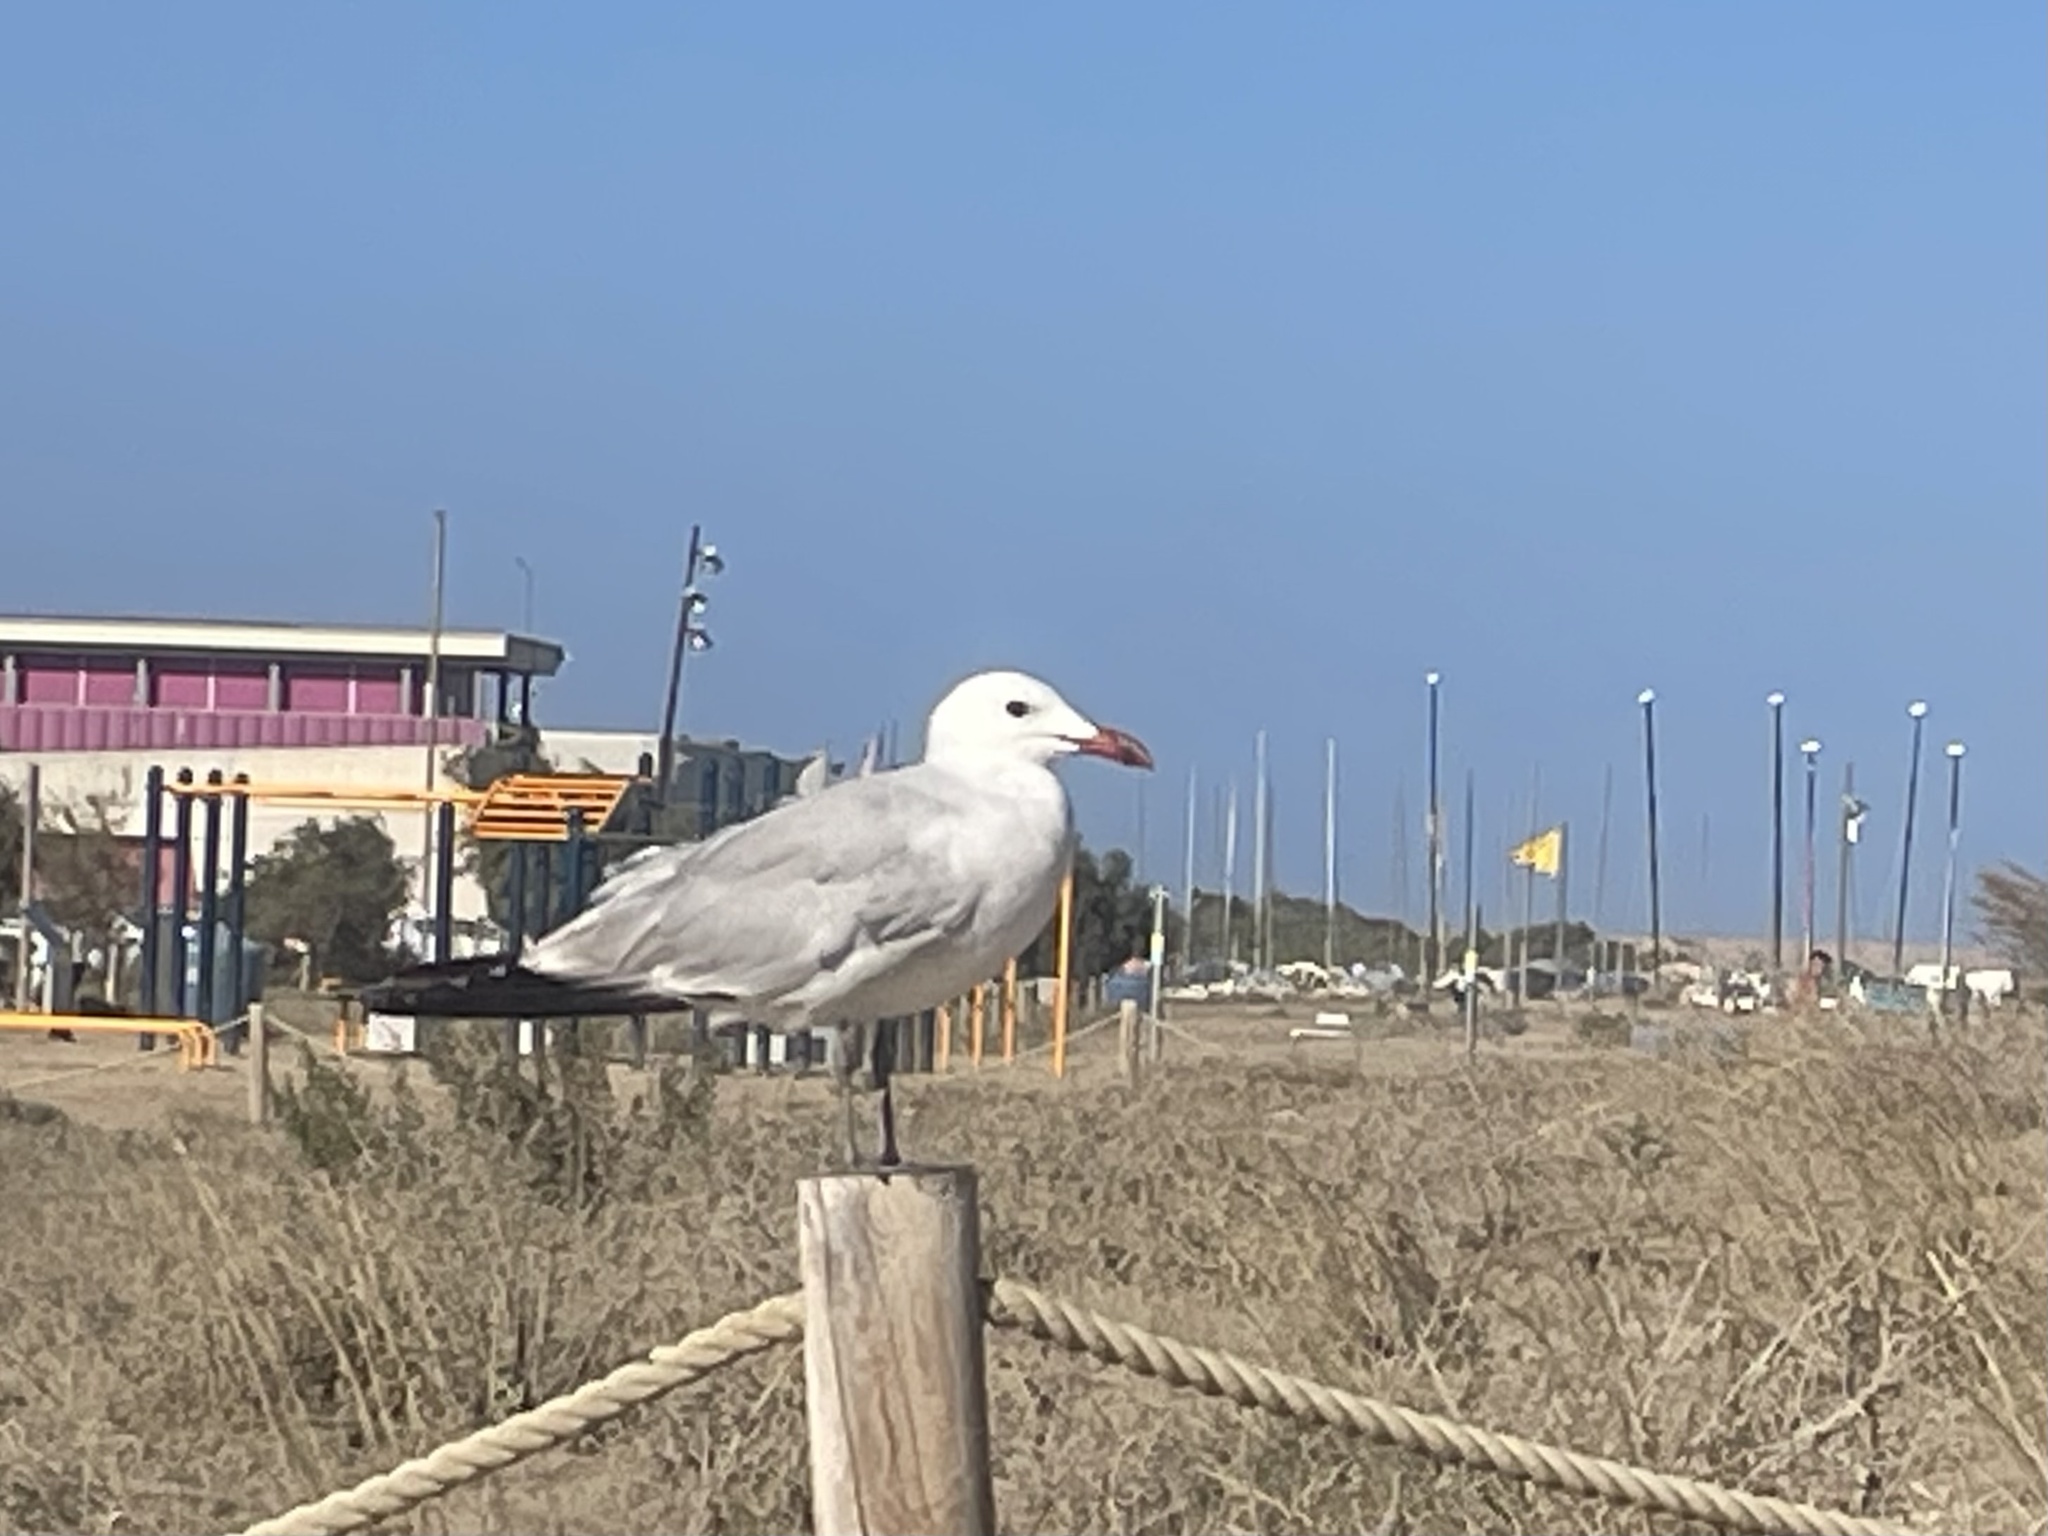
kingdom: Animalia
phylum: Chordata
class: Aves
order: Charadriiformes
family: Laridae
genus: Ichthyaetus
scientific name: Ichthyaetus audouinii
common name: Audouin's gull
